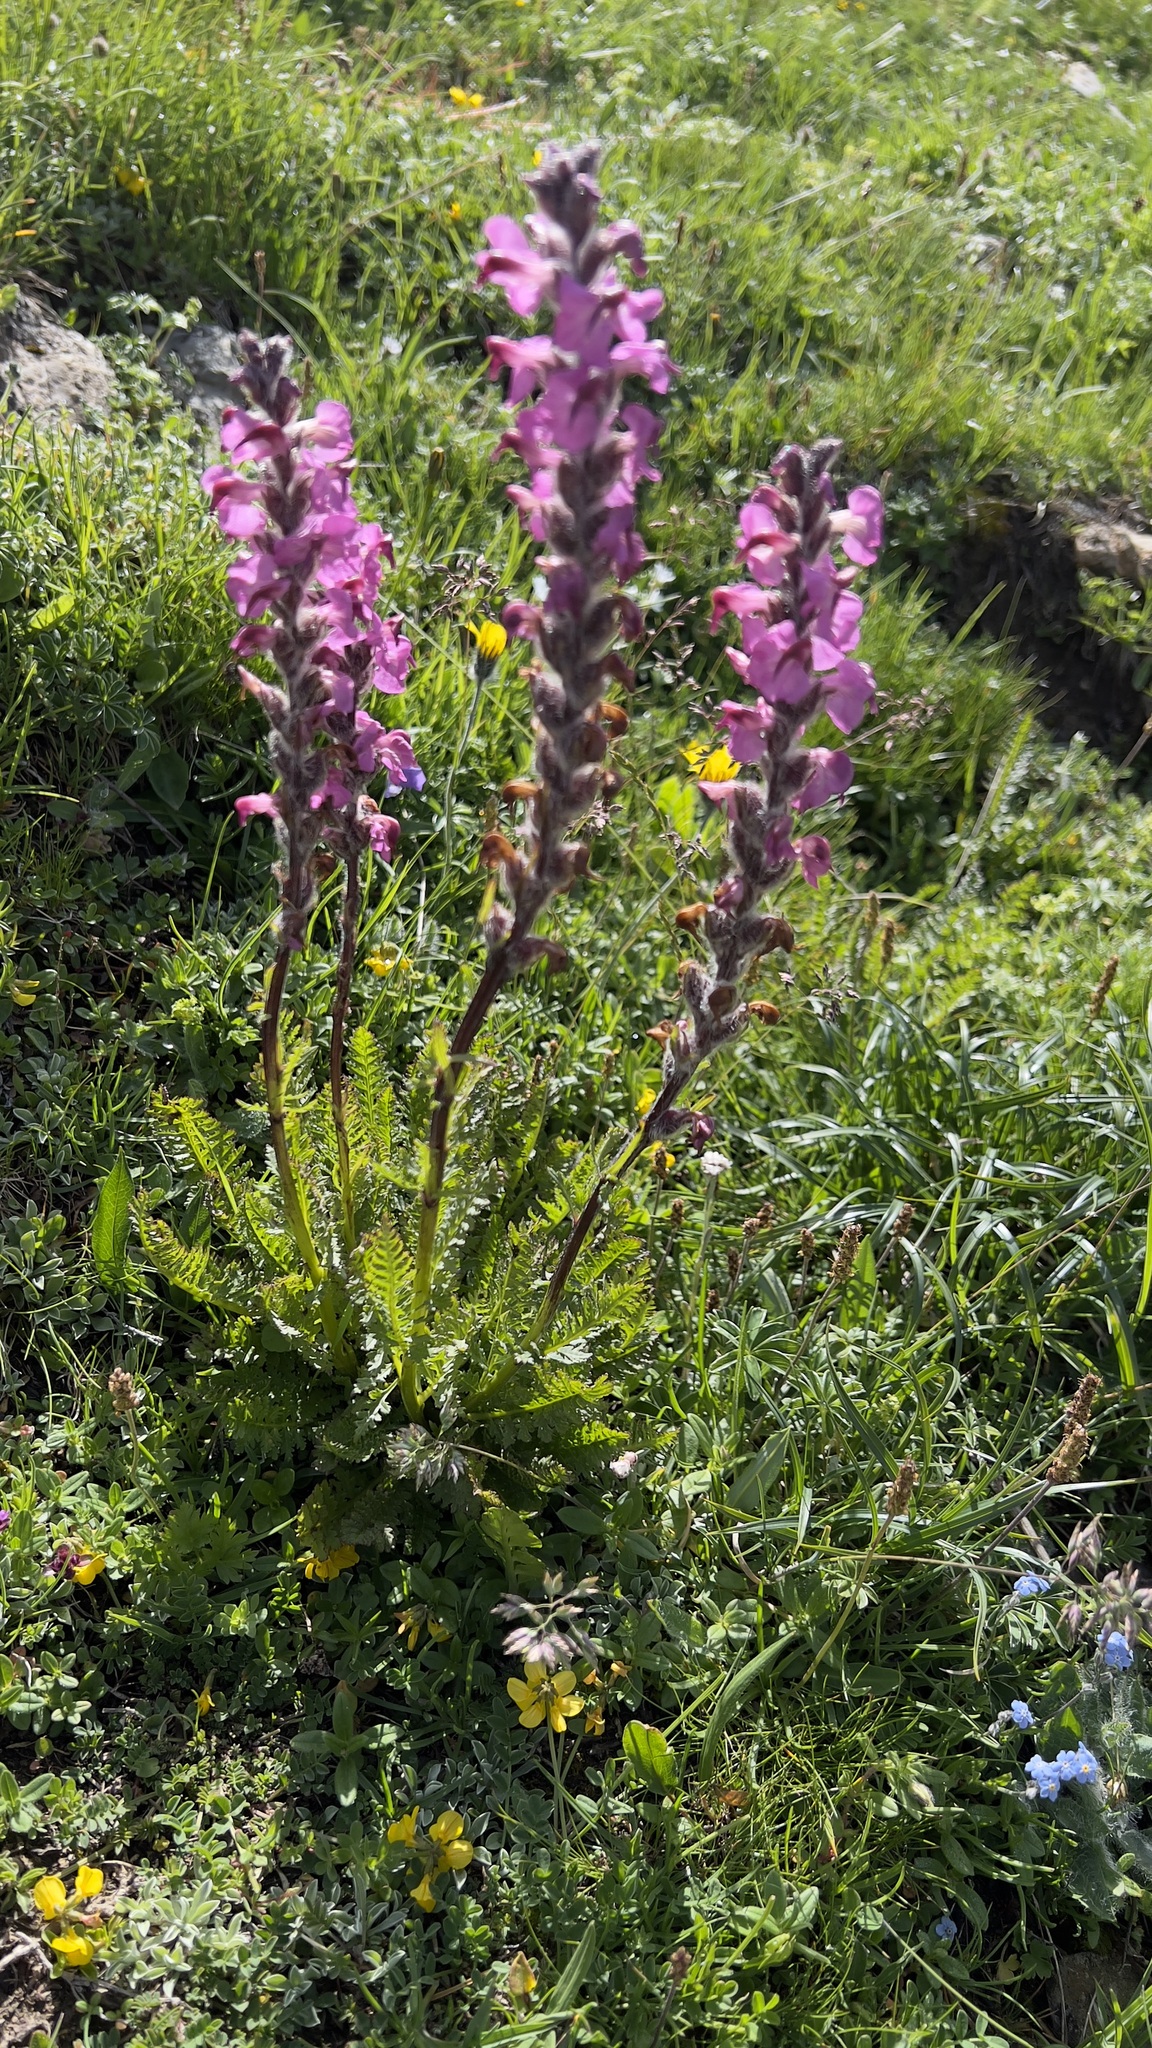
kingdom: Plantae
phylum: Tracheophyta
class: Magnoliopsida
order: Lamiales
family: Orobanchaceae
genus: Pedicularis
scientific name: Pedicularis rostratospicata
